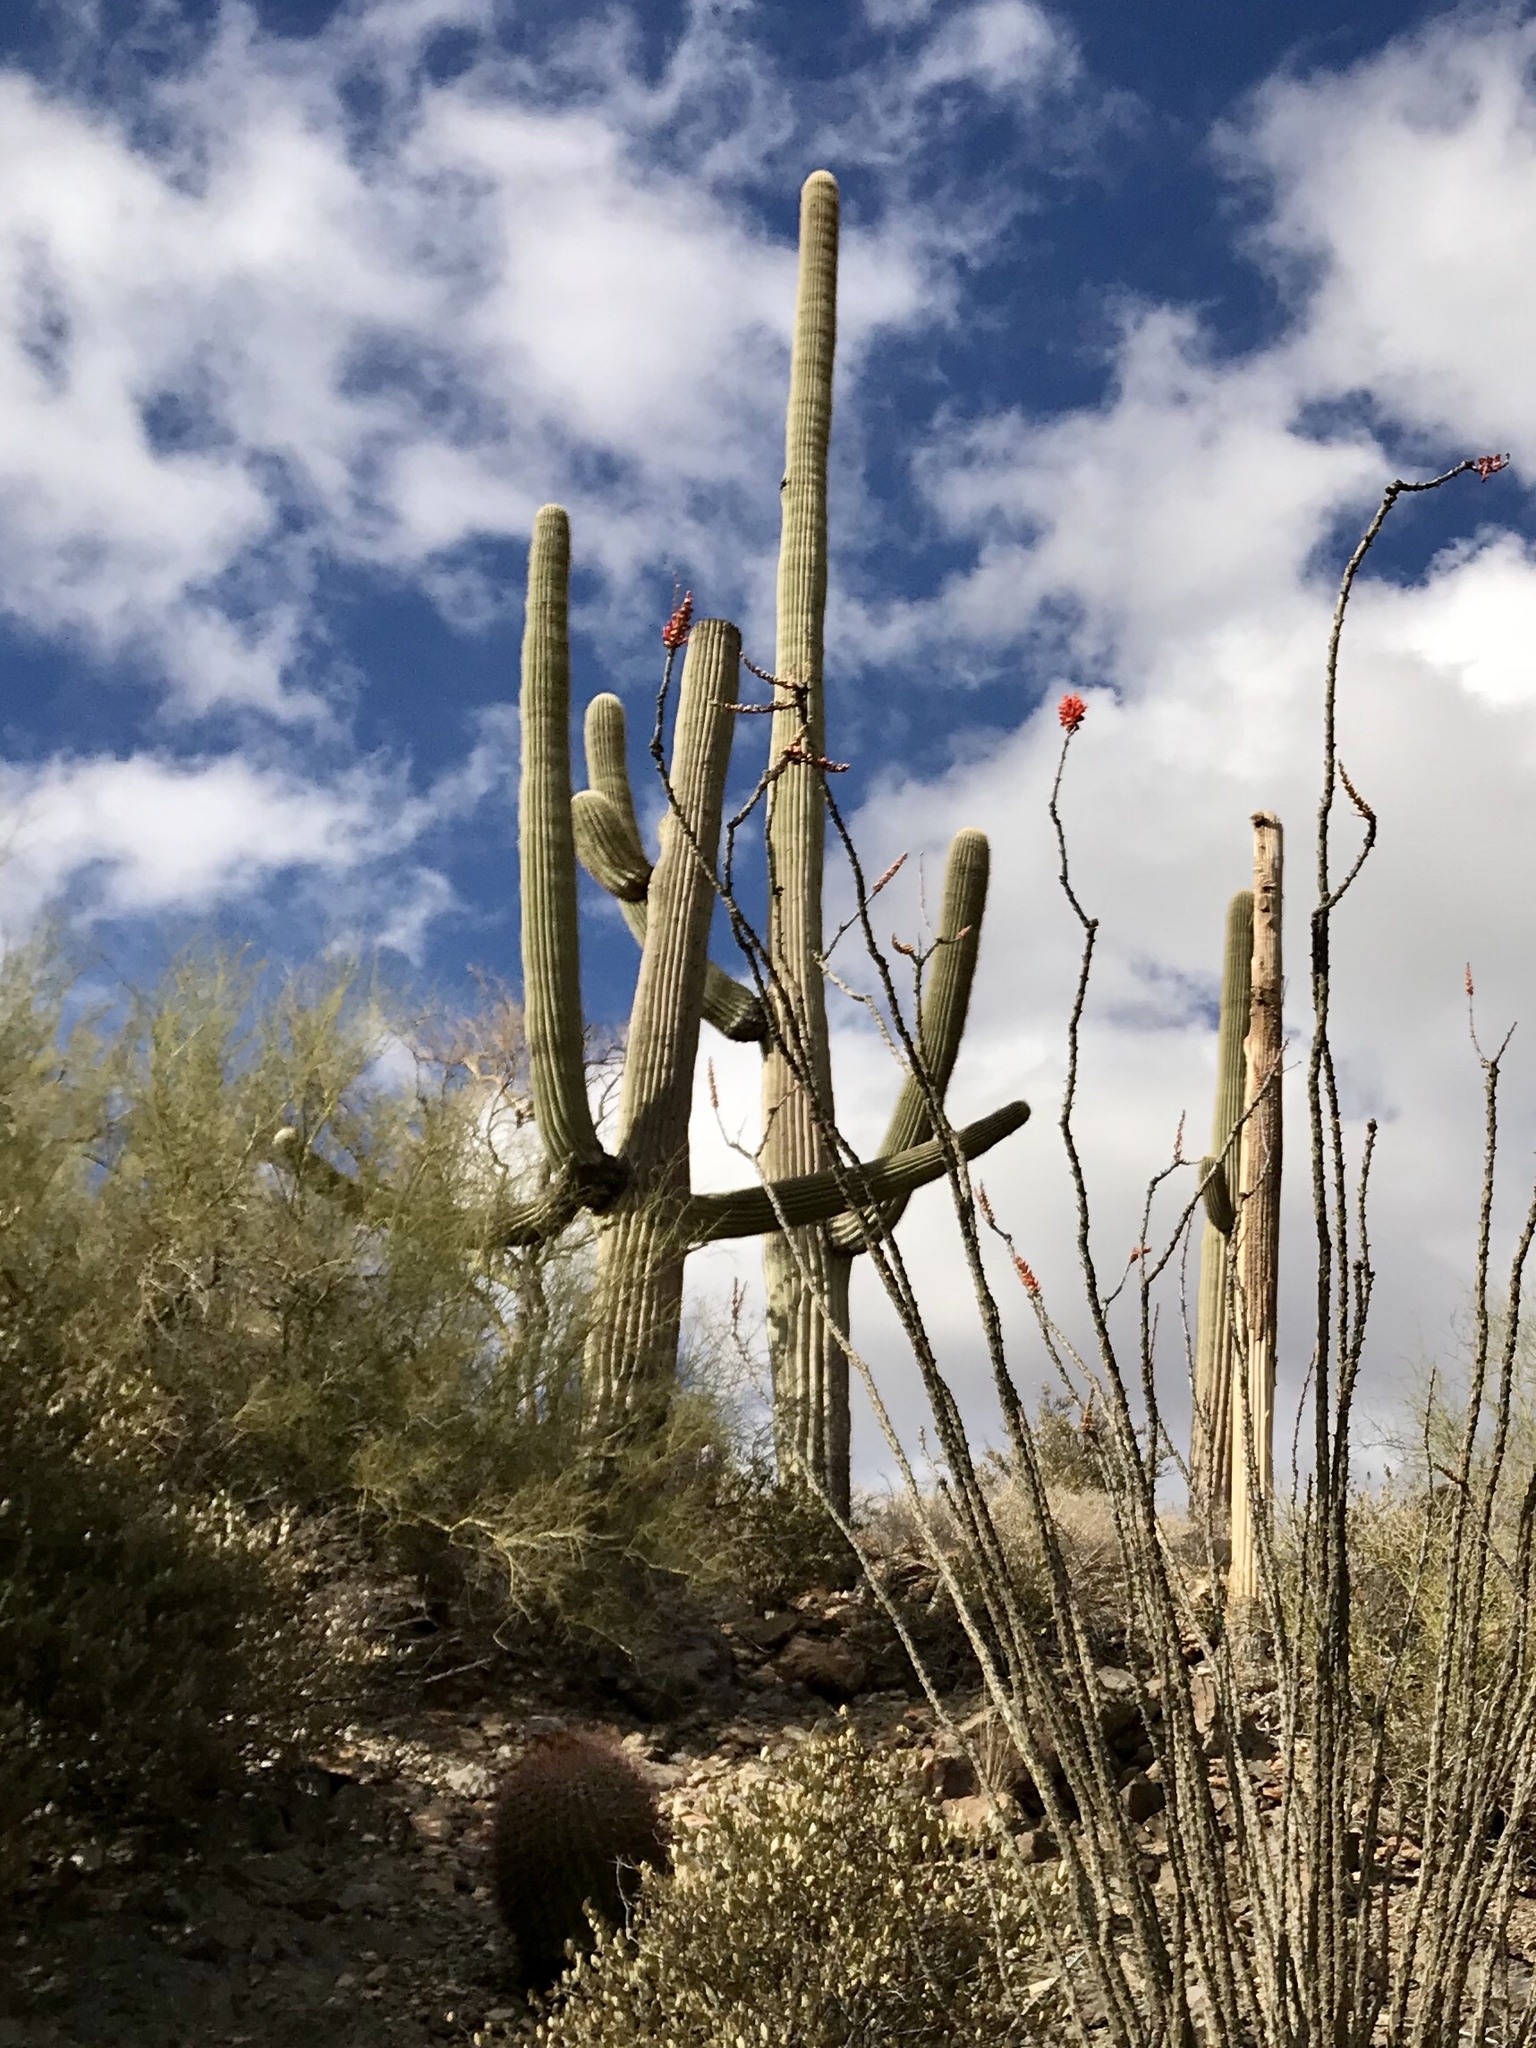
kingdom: Plantae
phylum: Tracheophyta
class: Magnoliopsida
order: Caryophyllales
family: Cactaceae
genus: Carnegiea
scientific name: Carnegiea gigantea
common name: Saguaro
